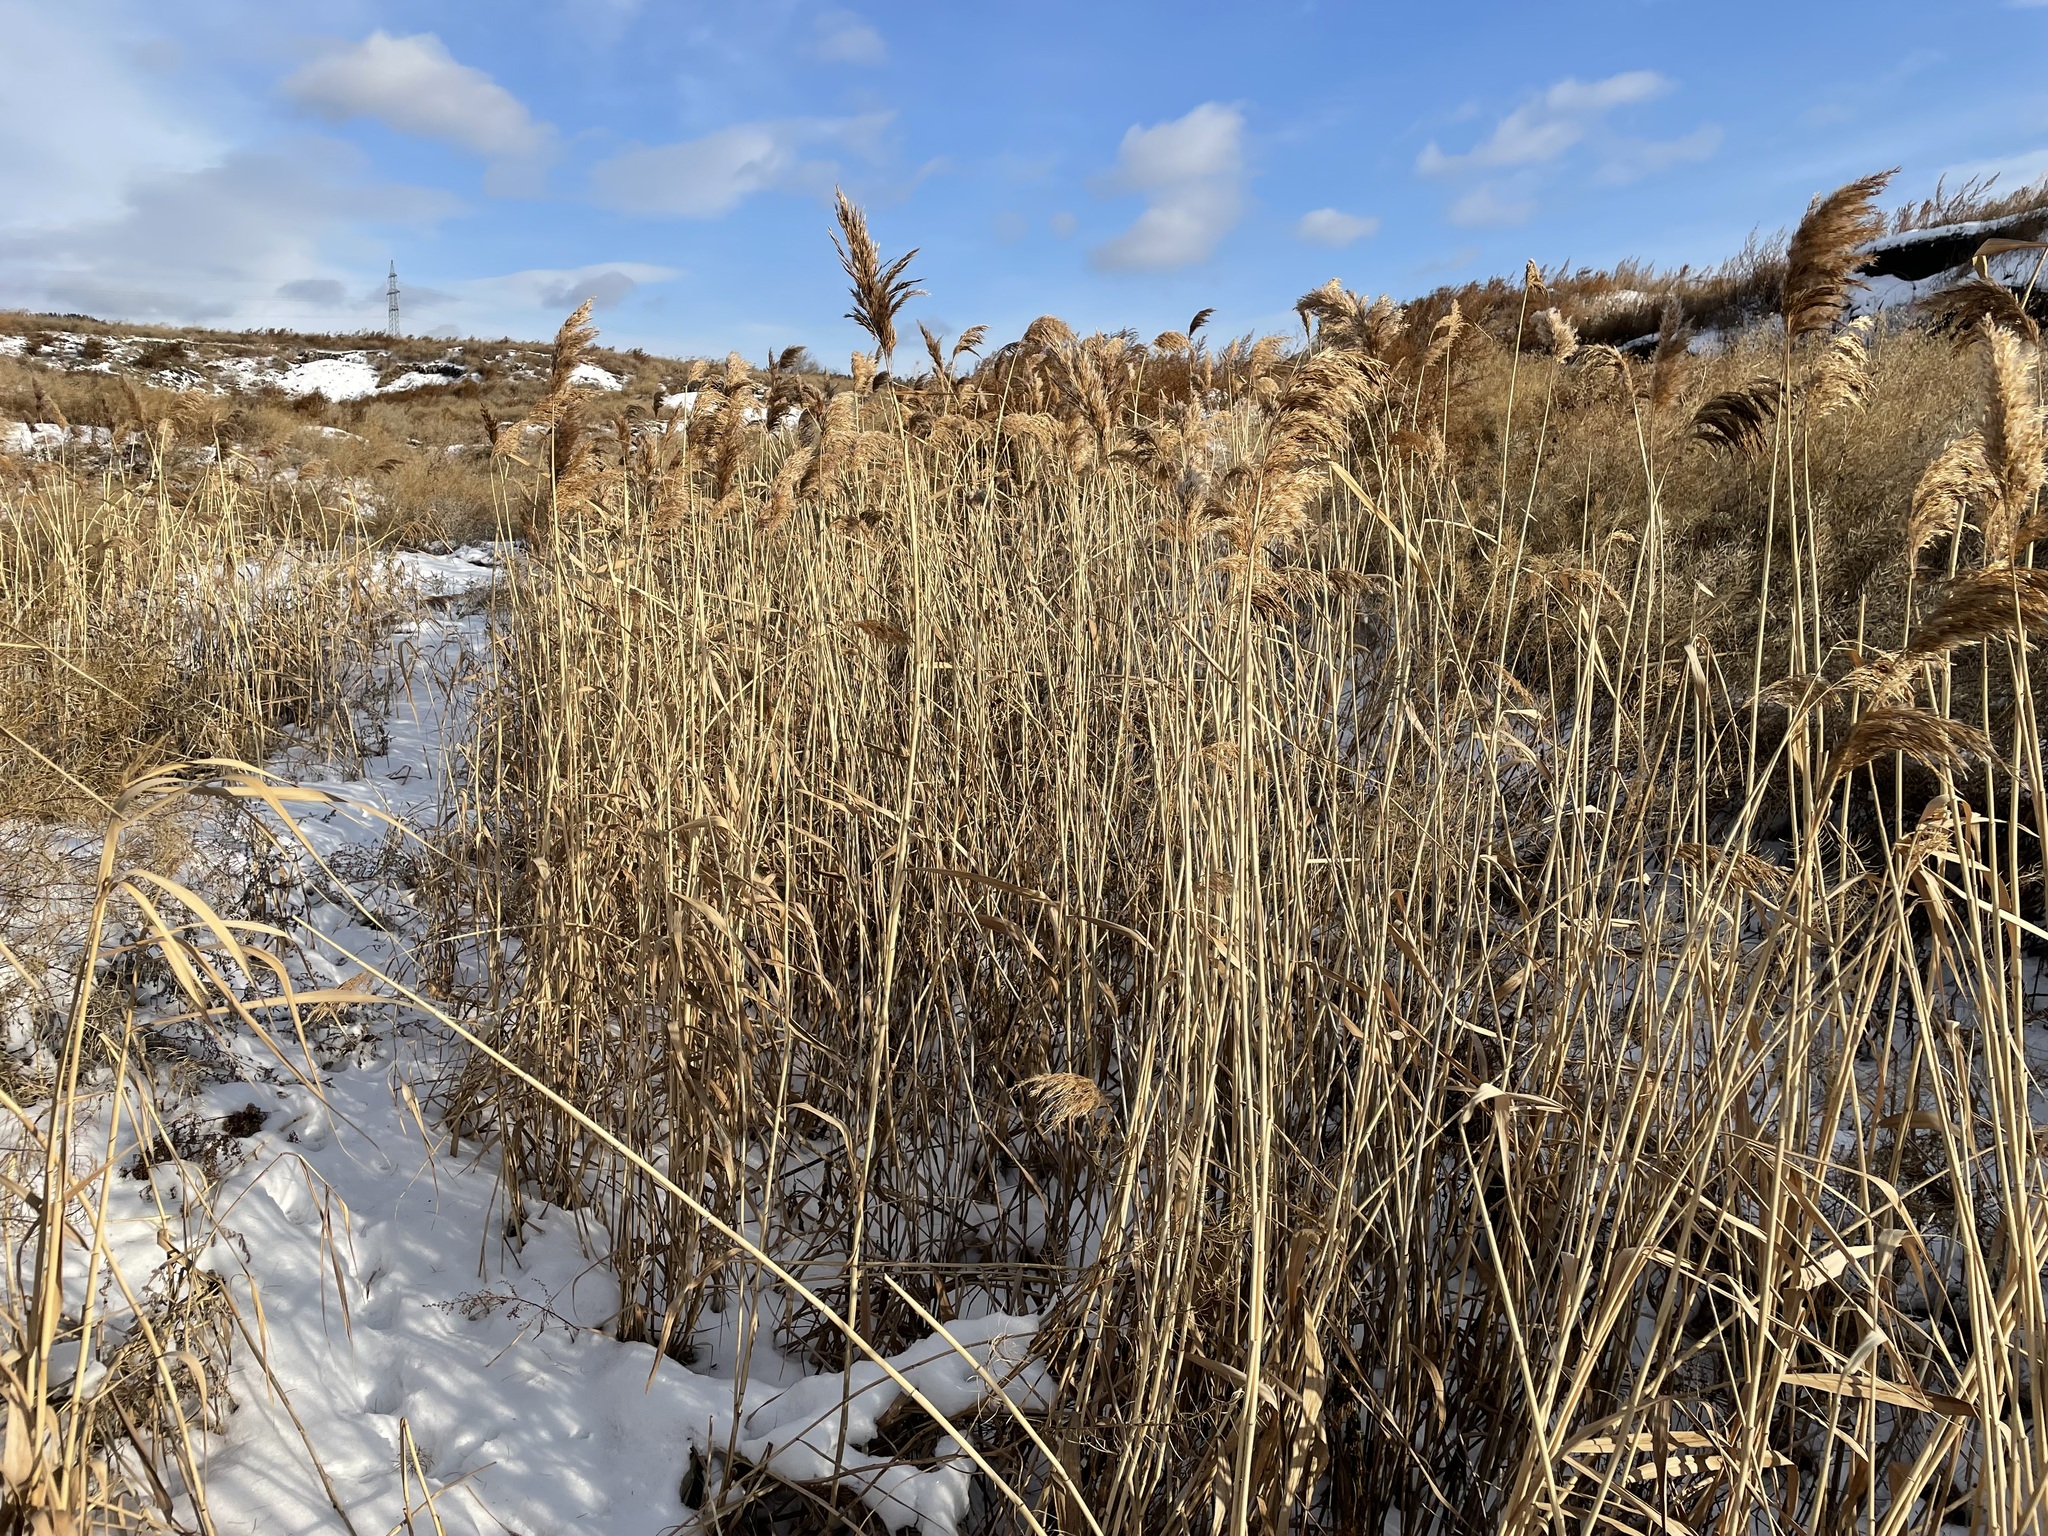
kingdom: Plantae
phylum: Tracheophyta
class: Liliopsida
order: Poales
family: Poaceae
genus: Phragmites
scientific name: Phragmites australis
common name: Common reed
